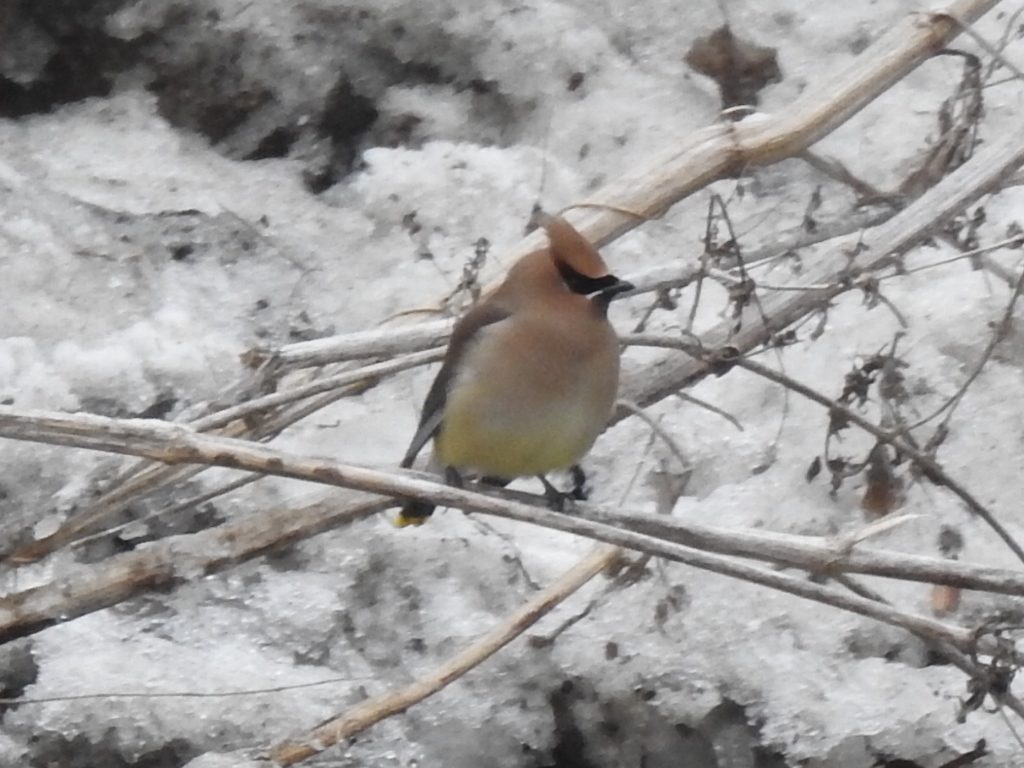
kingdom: Animalia
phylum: Chordata
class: Aves
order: Passeriformes
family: Bombycillidae
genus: Bombycilla
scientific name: Bombycilla cedrorum
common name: Cedar waxwing
